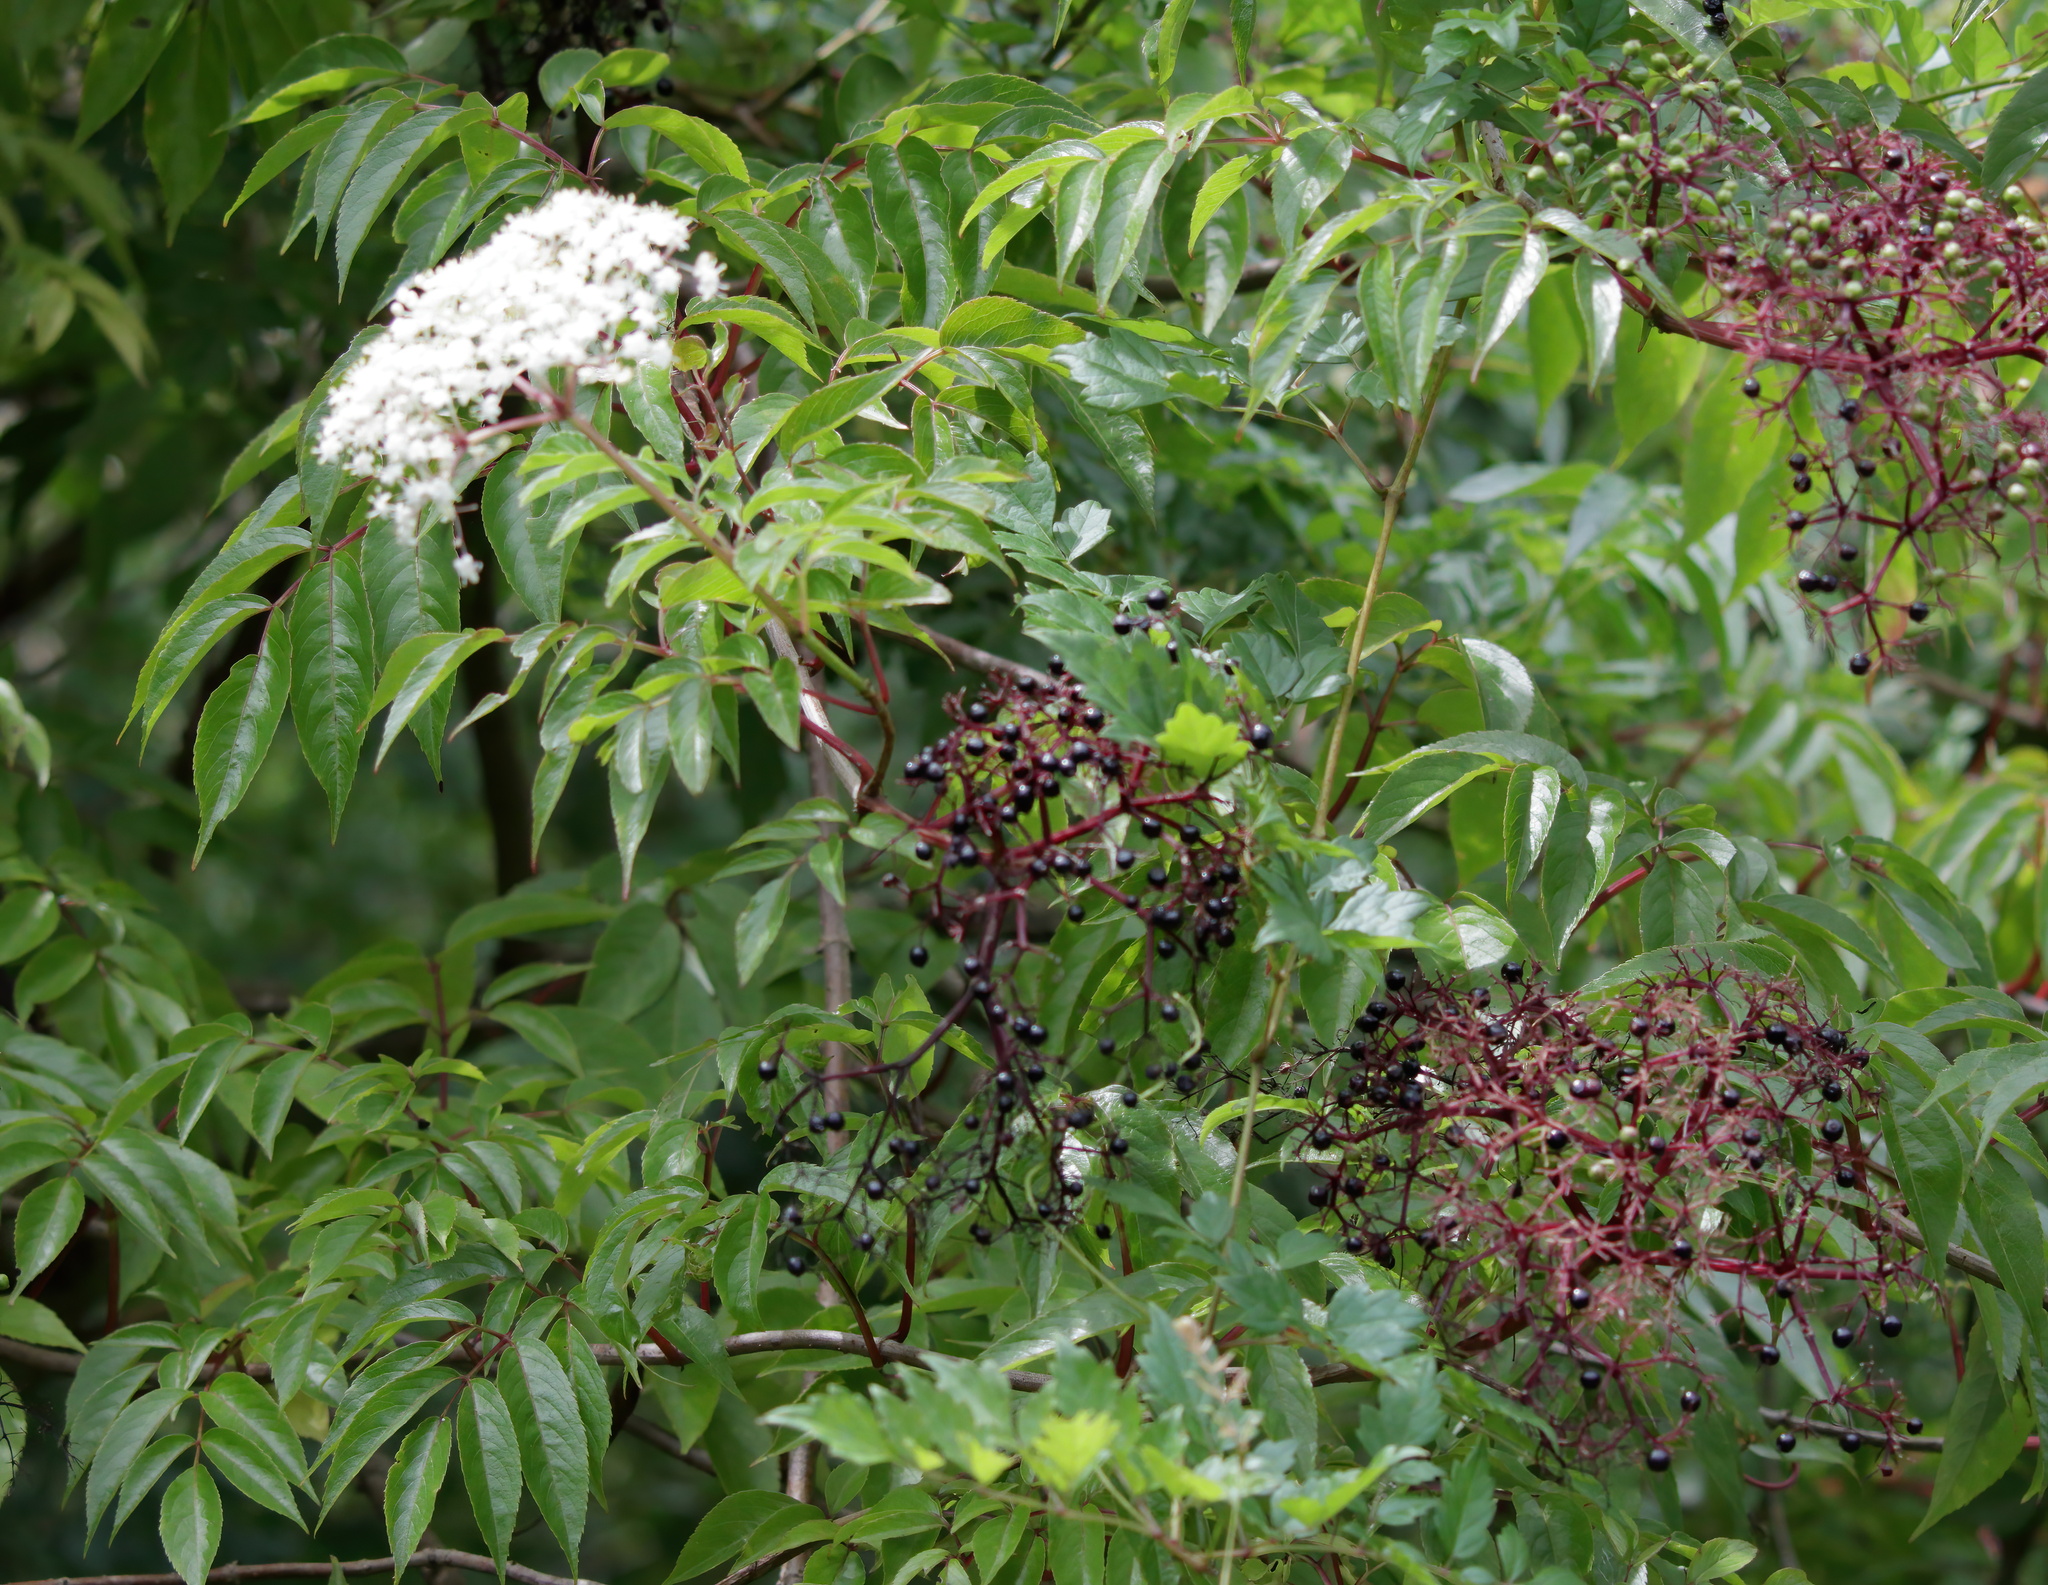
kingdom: Plantae
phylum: Tracheophyta
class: Magnoliopsida
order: Dipsacales
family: Viburnaceae
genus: Sambucus
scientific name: Sambucus canadensis
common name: American elder
